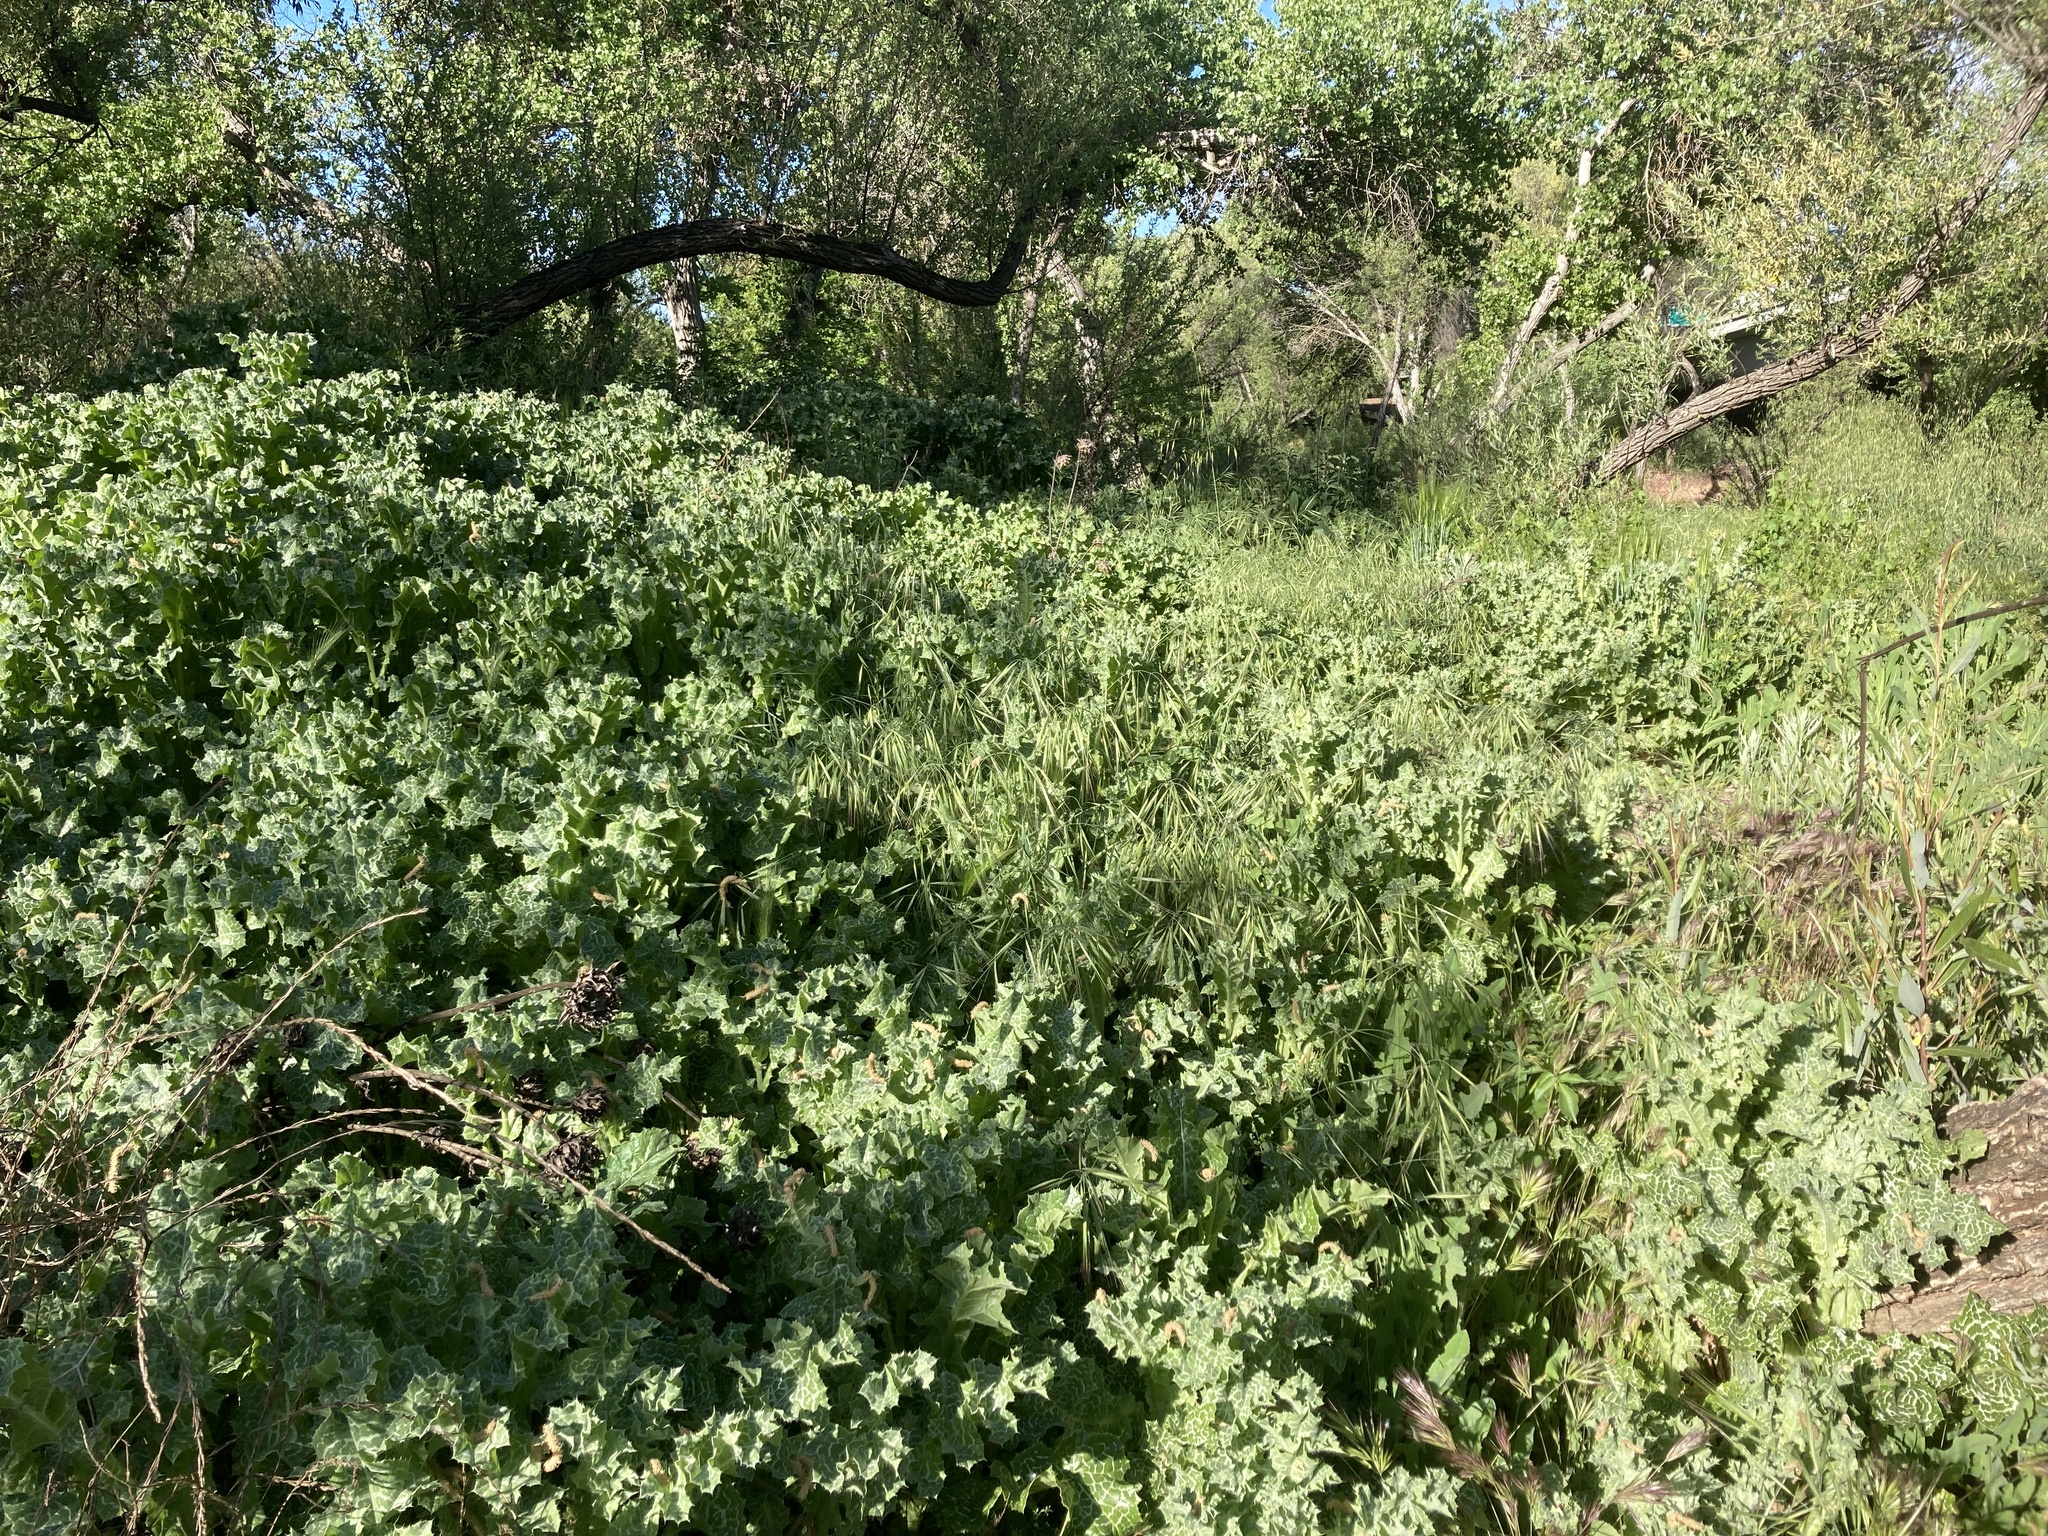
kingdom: Plantae
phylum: Tracheophyta
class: Magnoliopsida
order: Asterales
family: Asteraceae
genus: Silybum
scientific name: Silybum marianum
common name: Milk thistle
